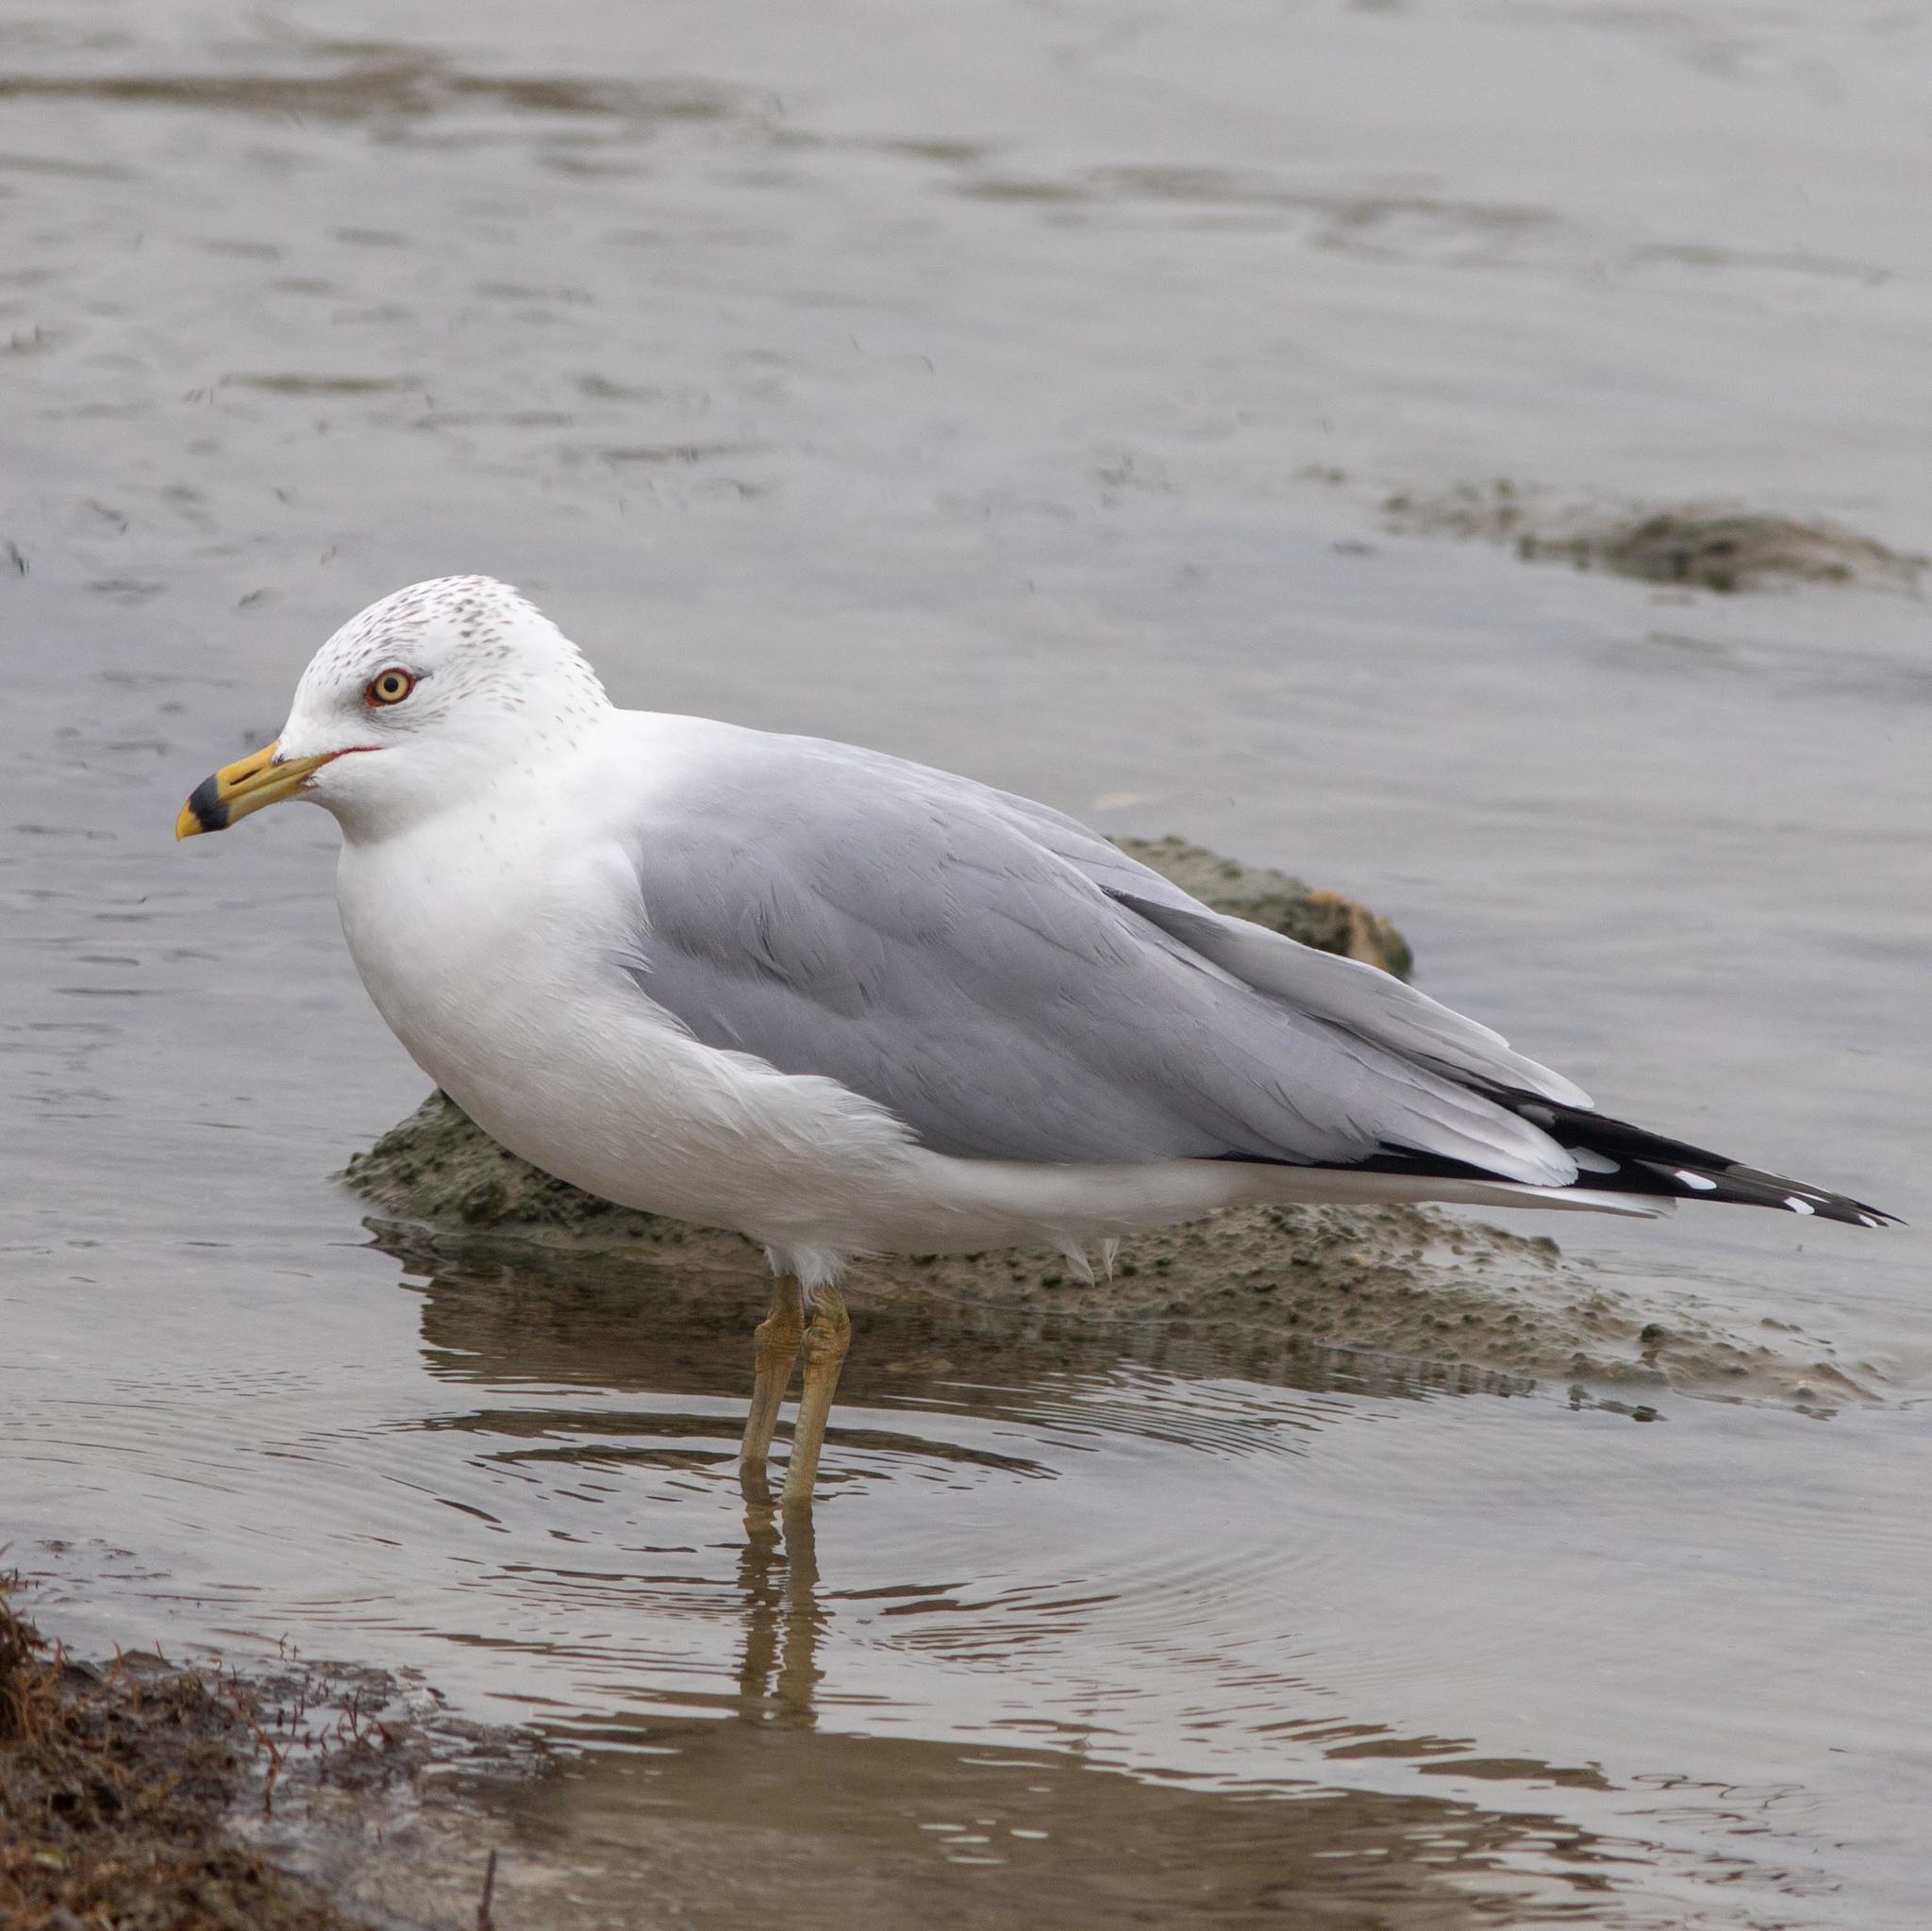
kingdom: Animalia
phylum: Chordata
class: Aves
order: Charadriiformes
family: Laridae
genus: Larus
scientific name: Larus delawarensis
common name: Ring-billed gull
